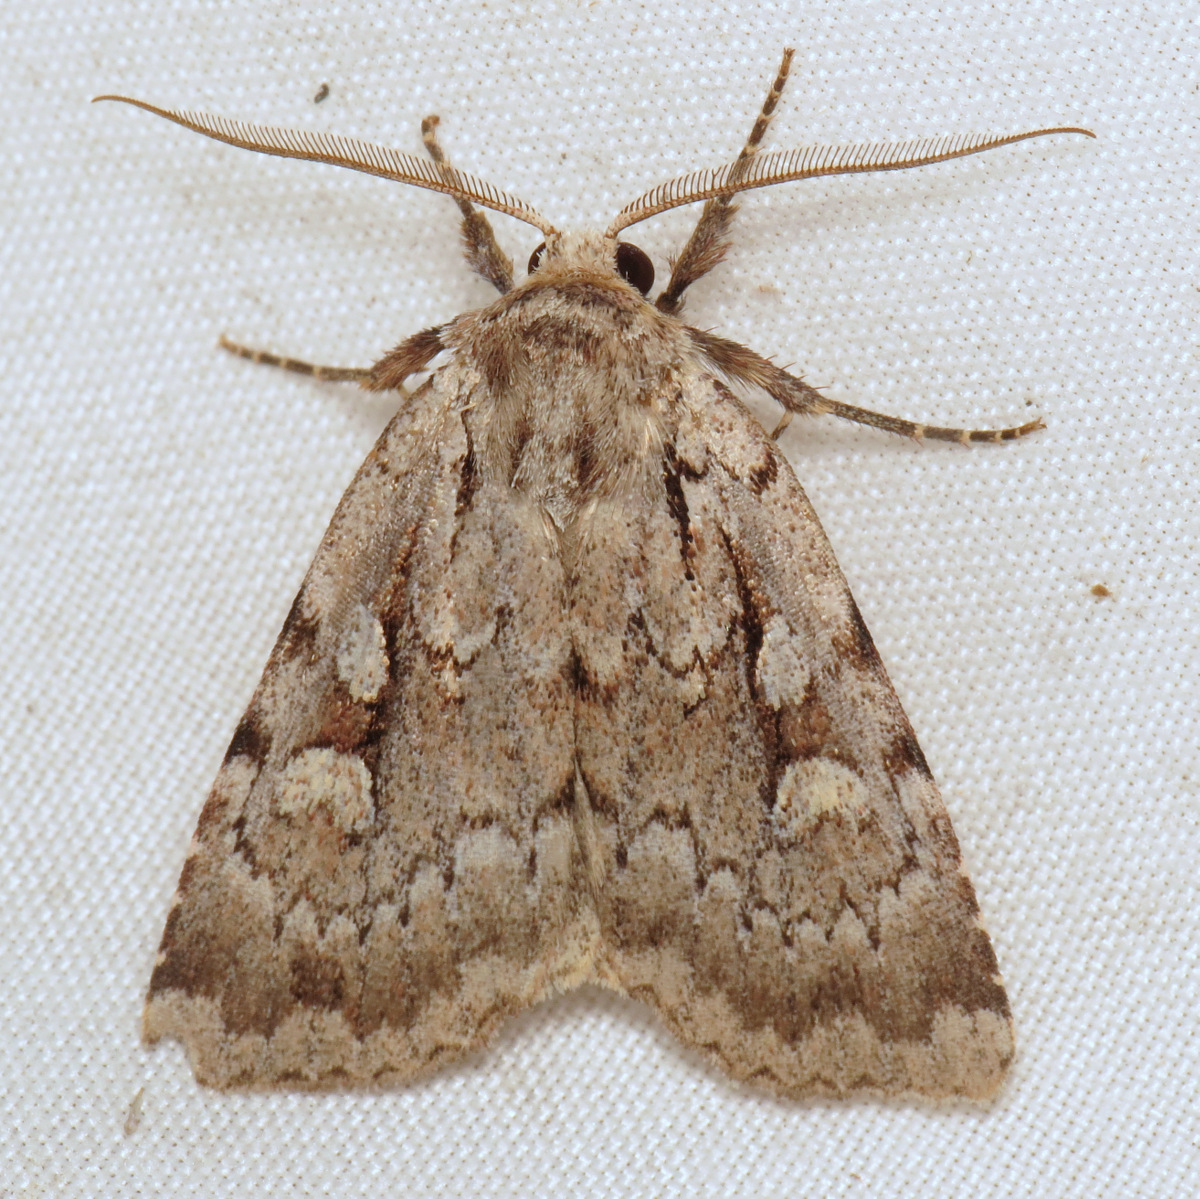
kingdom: Animalia
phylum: Arthropoda
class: Insecta
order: Lepidoptera
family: Noctuidae
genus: Xestia
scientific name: Xestia badicollis
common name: Northern variable dart
